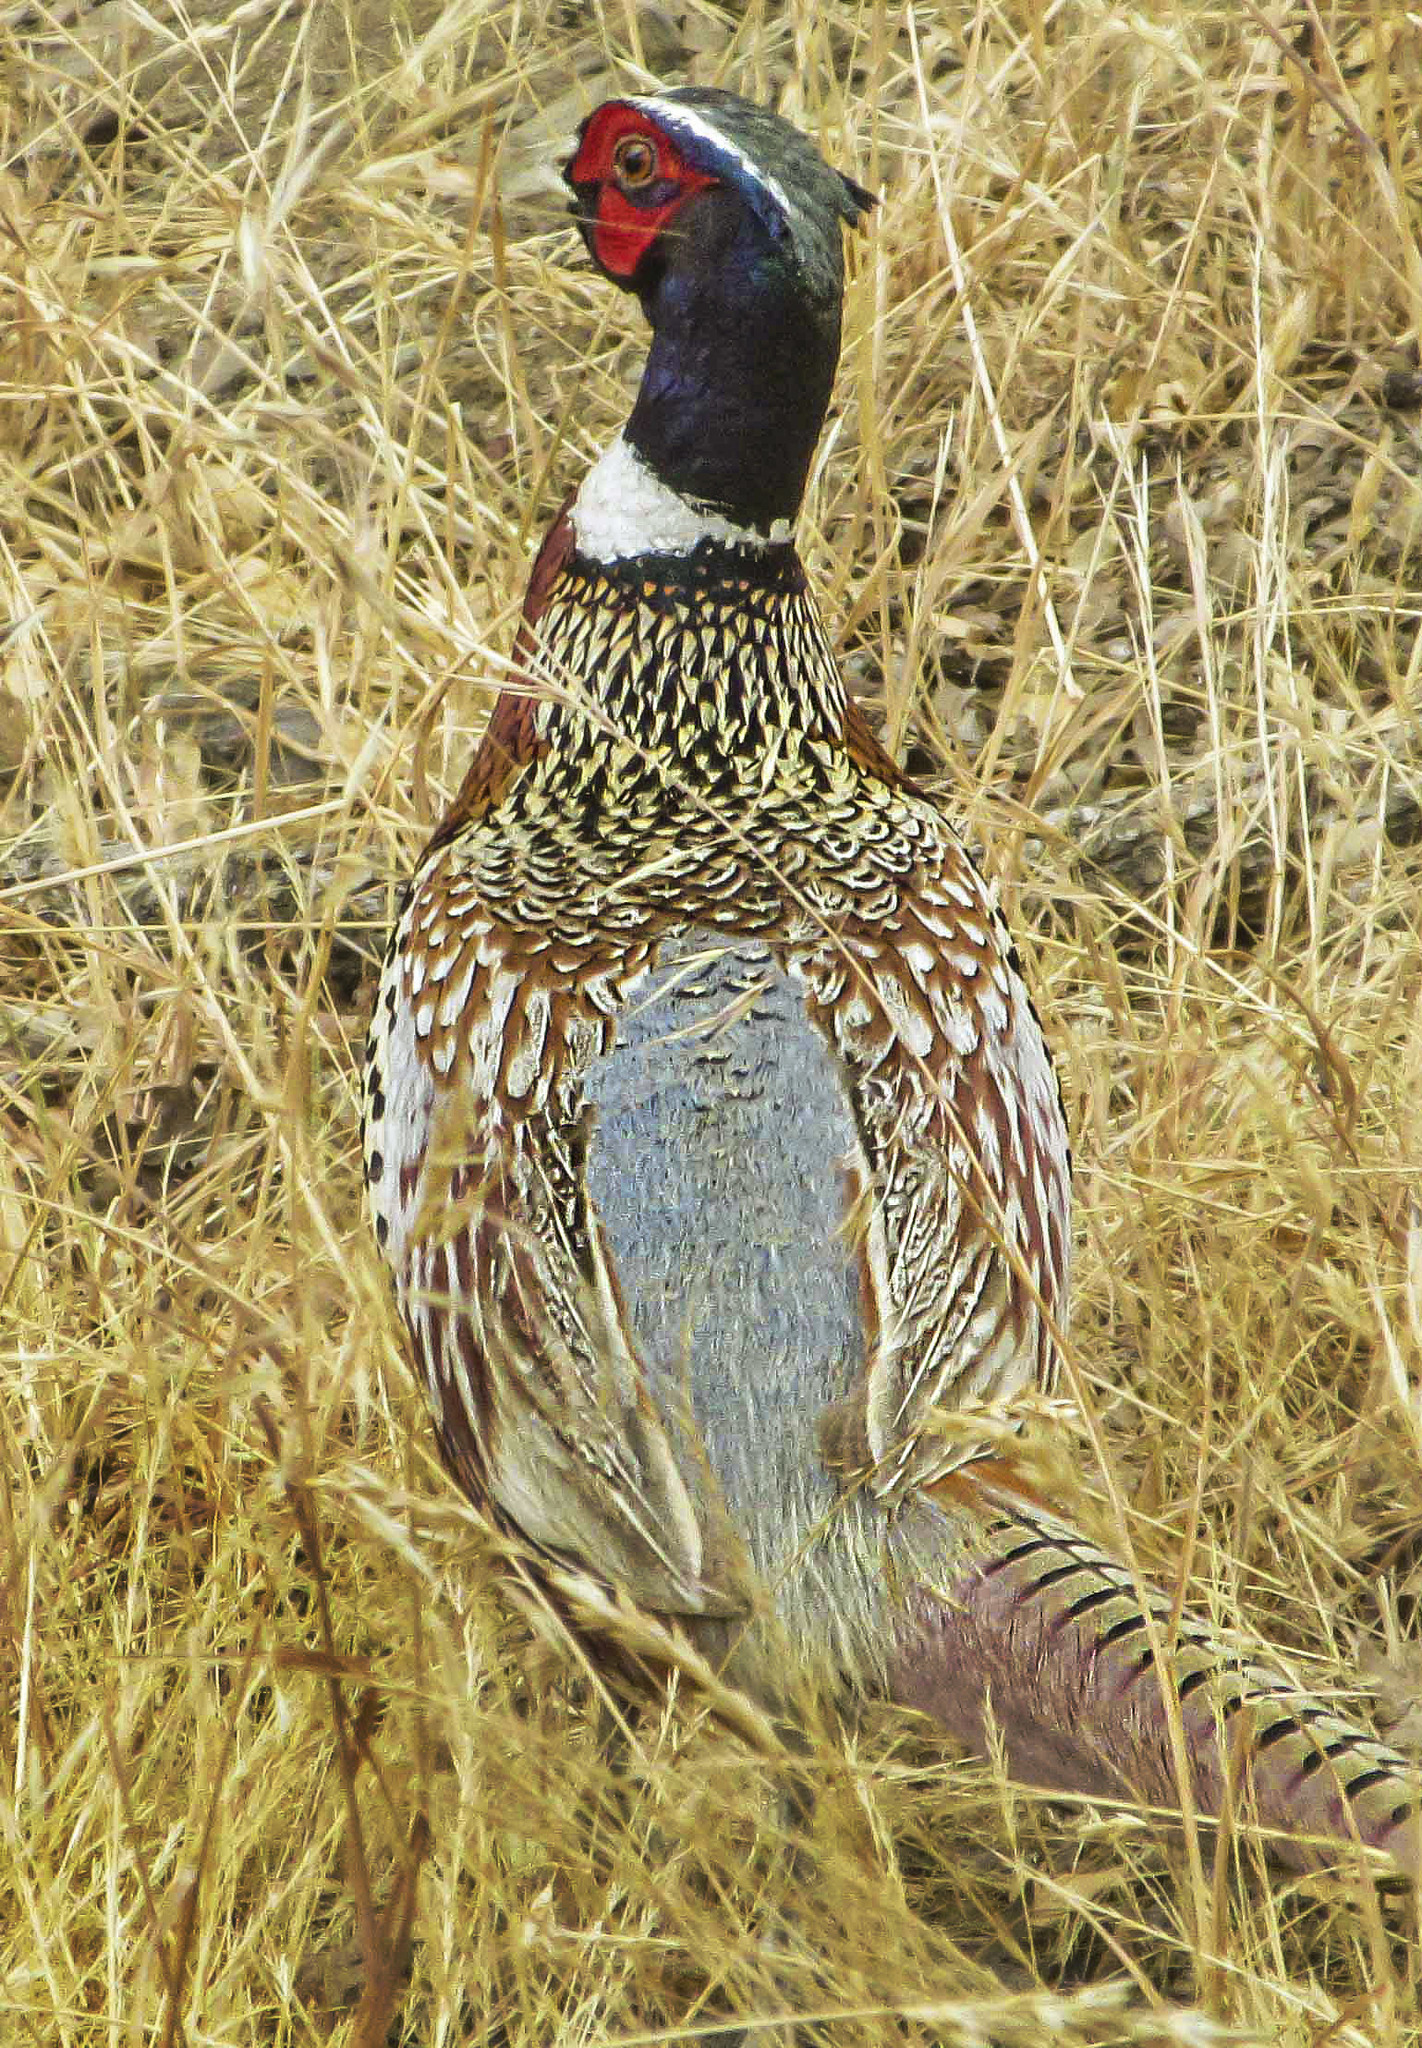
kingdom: Animalia
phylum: Chordata
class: Aves
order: Galliformes
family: Phasianidae
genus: Phasianus
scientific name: Phasianus colchicus
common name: Common pheasant
